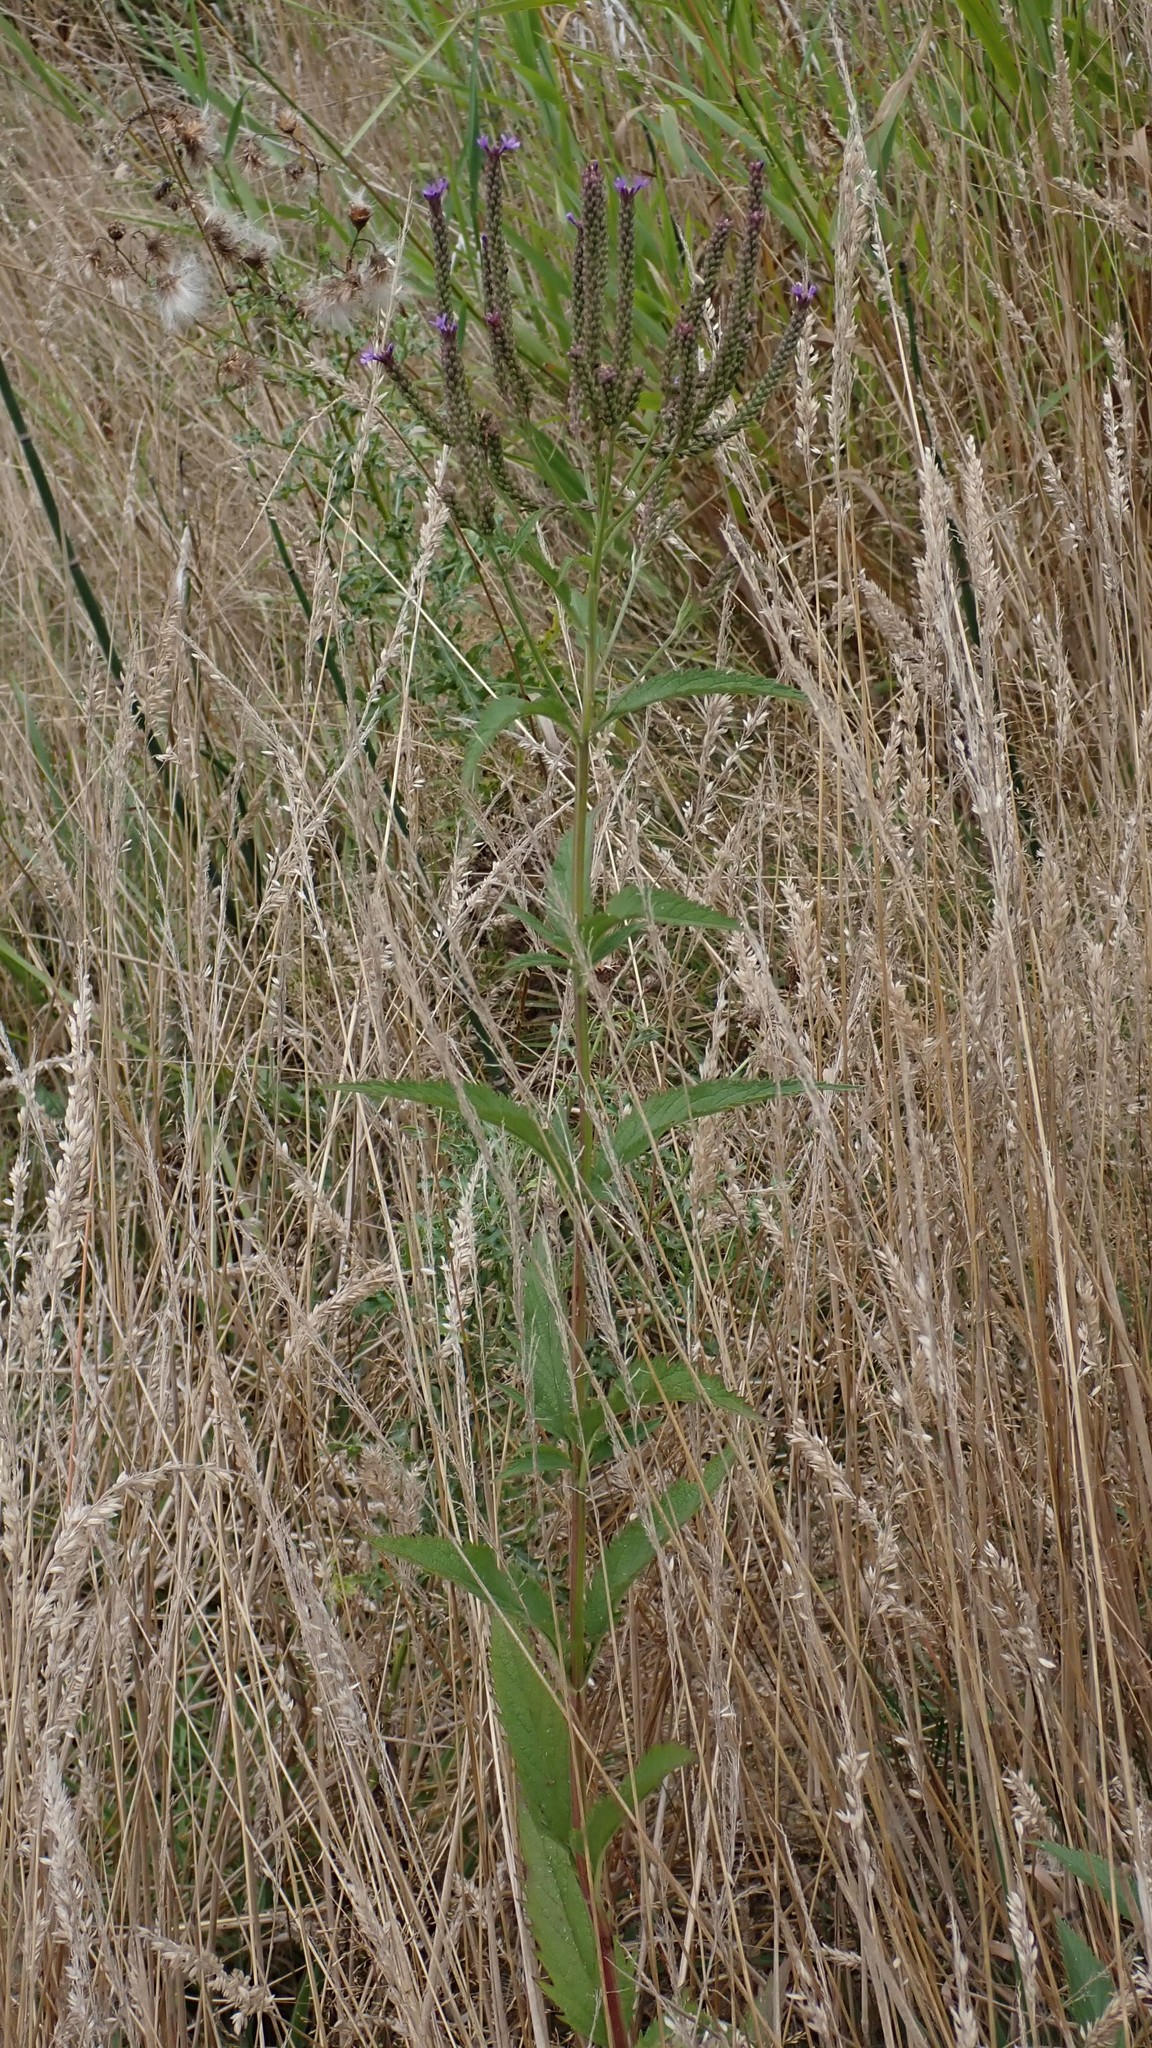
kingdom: Plantae
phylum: Tracheophyta
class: Magnoliopsida
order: Lamiales
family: Verbenaceae
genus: Verbena
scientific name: Verbena hastata
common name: American blue vervain
